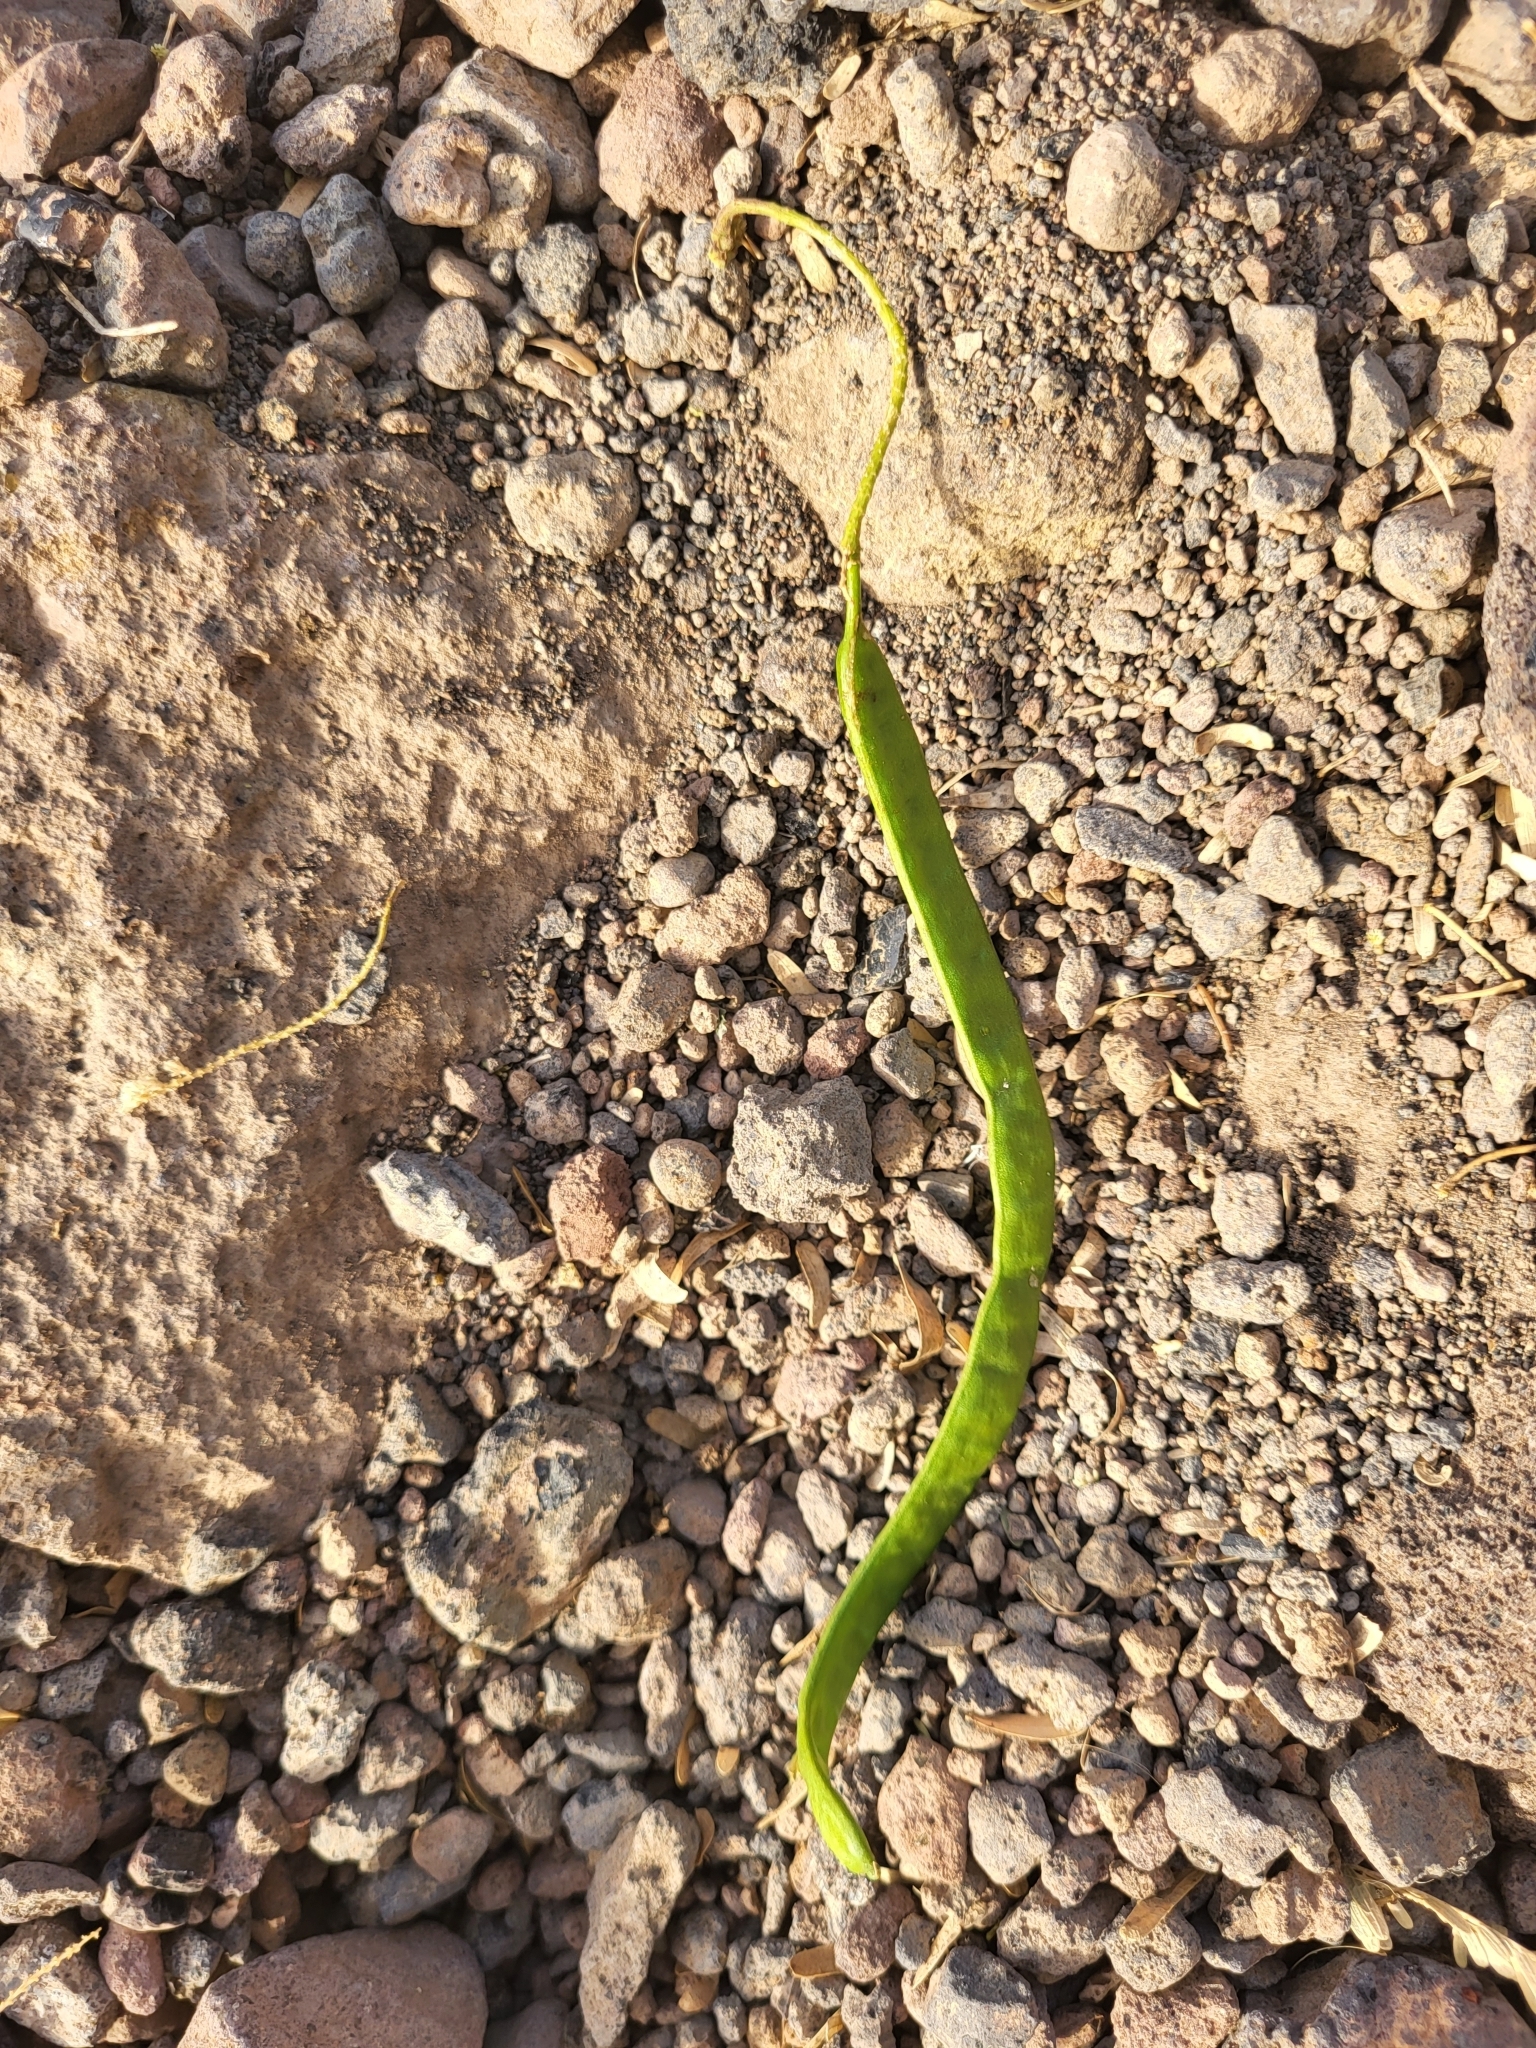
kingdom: Plantae
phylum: Tracheophyta
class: Magnoliopsida
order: Fabales
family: Fabaceae
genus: Prosopis
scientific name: Prosopis juliflora
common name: Mesquite
